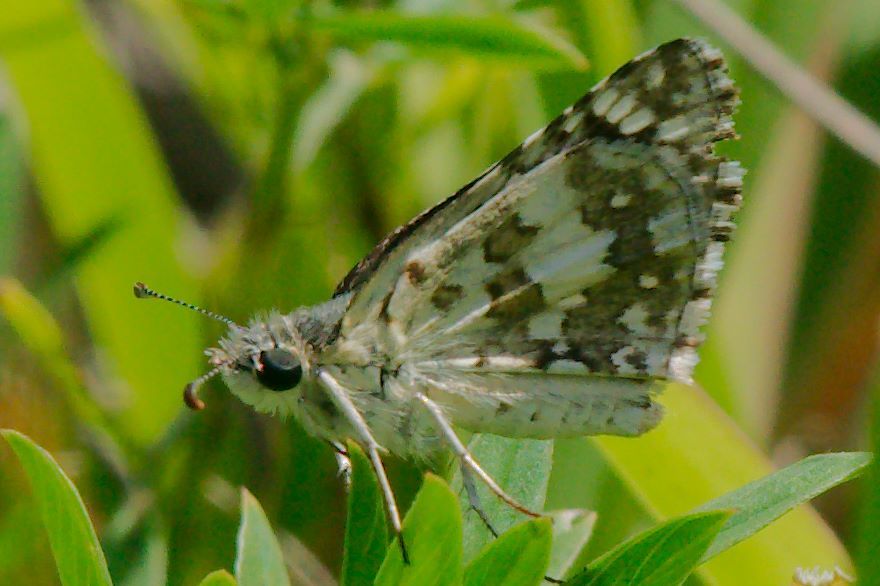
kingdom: Animalia
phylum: Arthropoda
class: Insecta
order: Lepidoptera
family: Hesperiidae
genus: Burnsius
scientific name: Burnsius albezens
